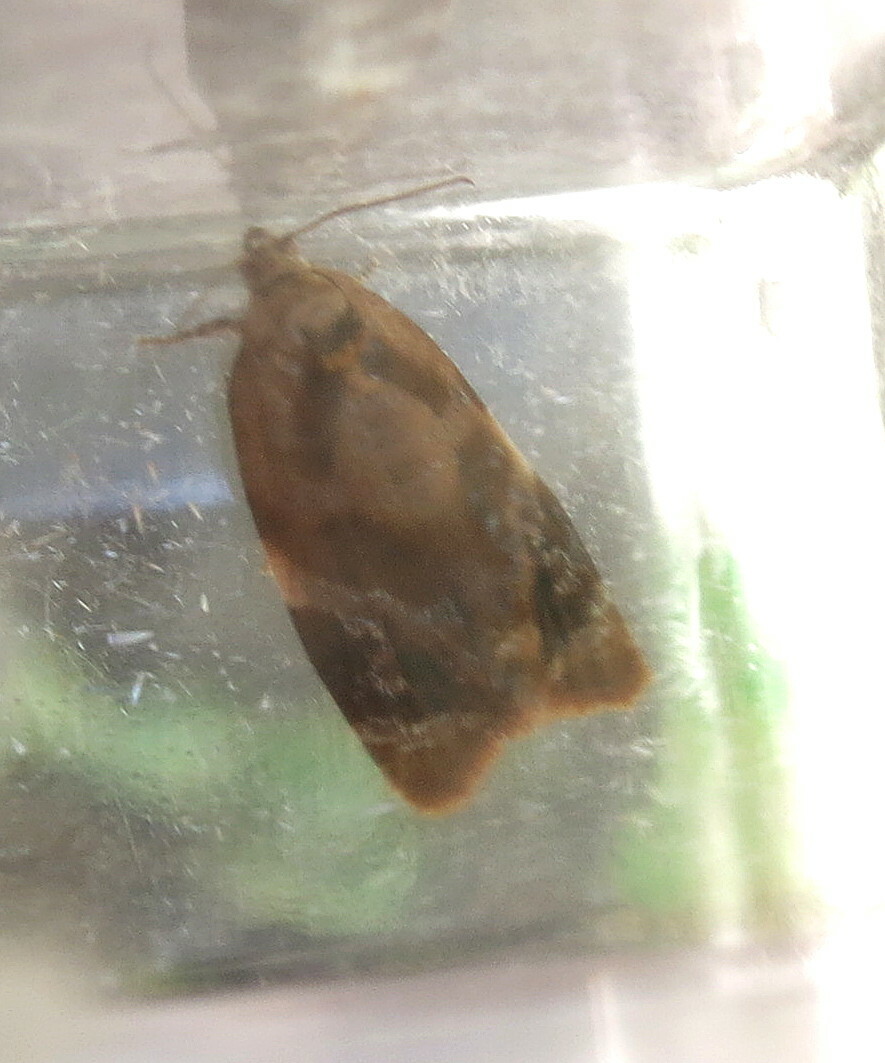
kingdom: Animalia
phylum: Arthropoda
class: Insecta
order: Lepidoptera
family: Tortricidae
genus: Ditula
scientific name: Ditula angustiorana
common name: Red-barred tortrix
